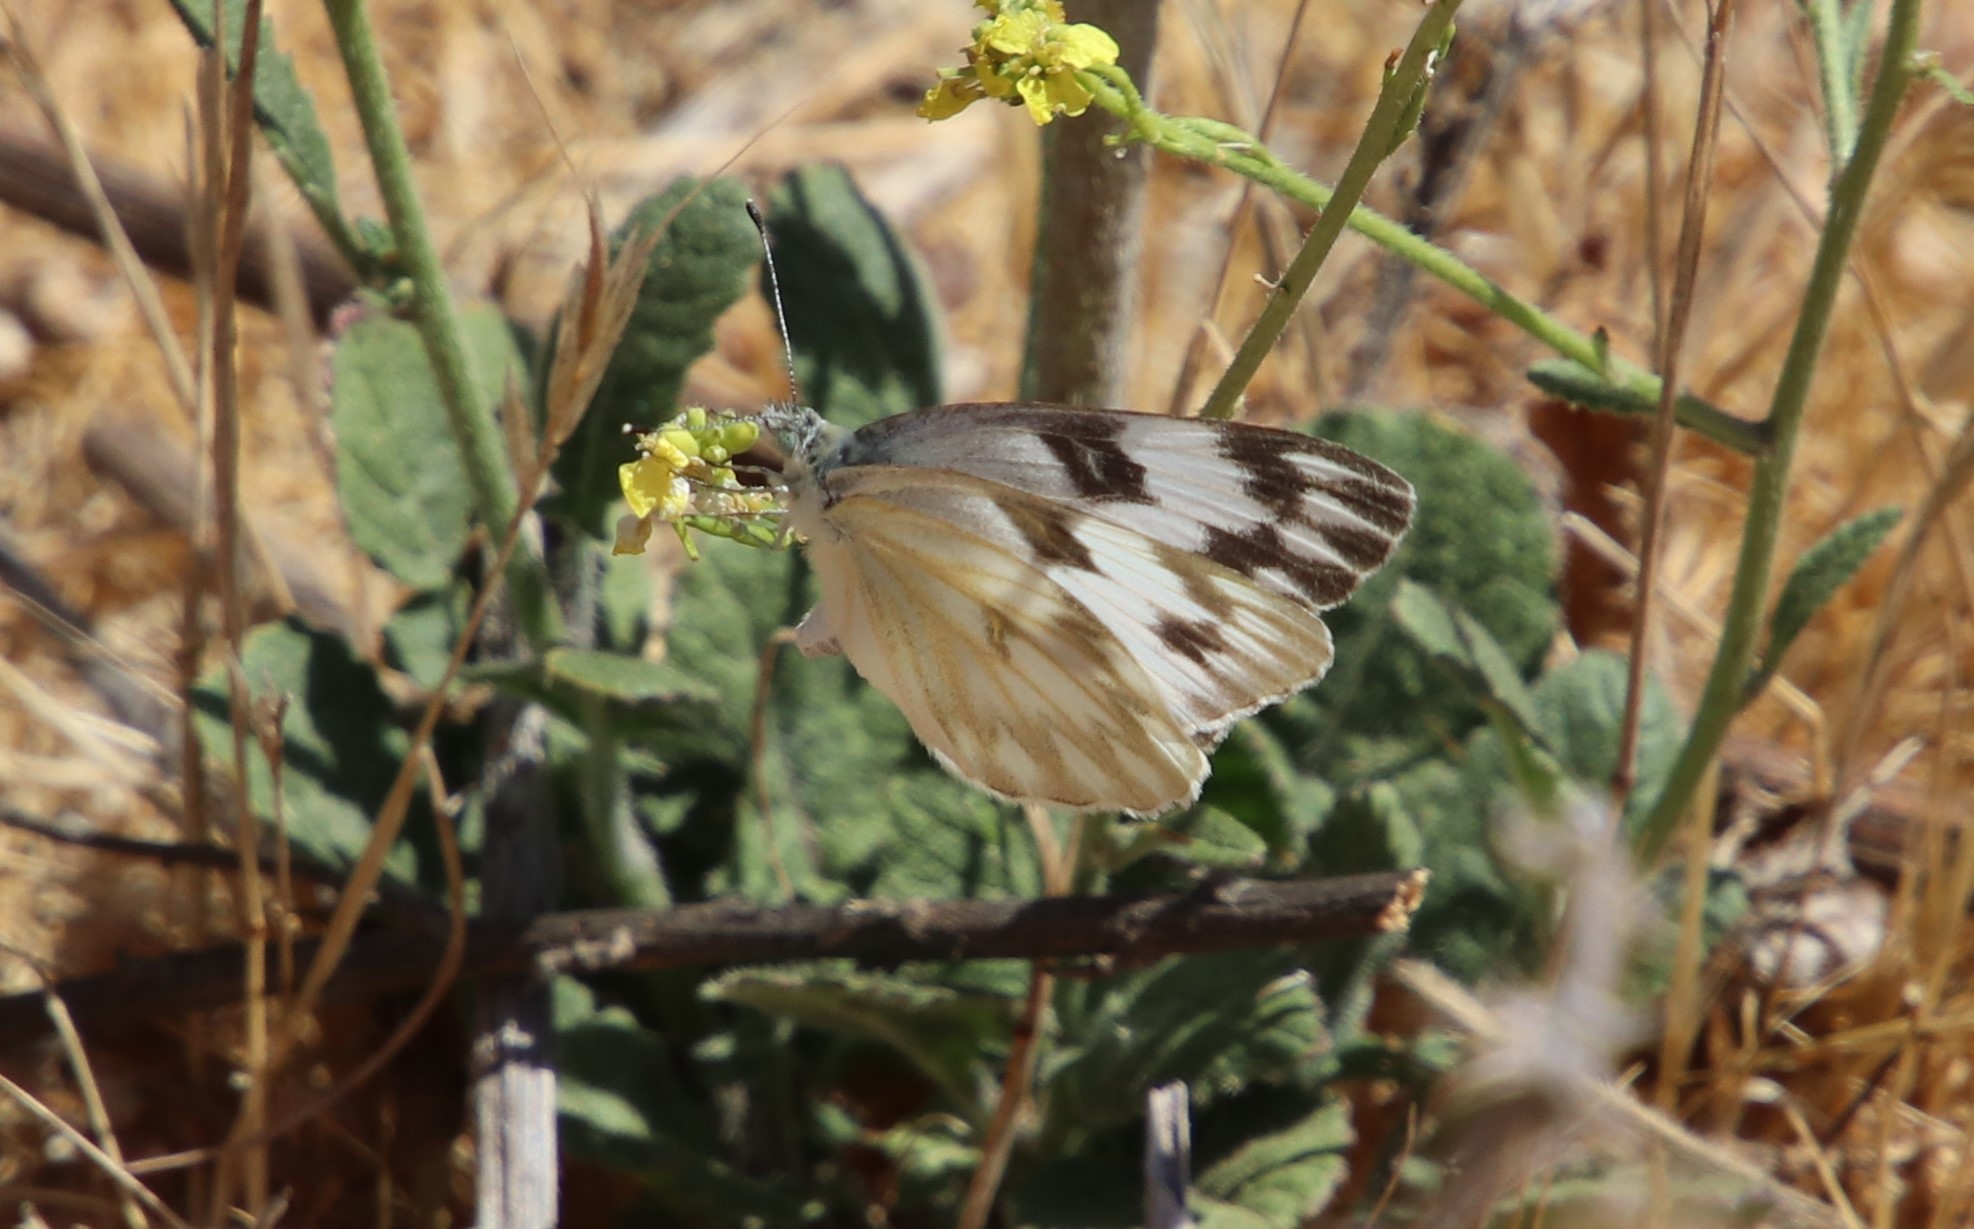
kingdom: Animalia
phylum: Arthropoda
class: Insecta
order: Lepidoptera
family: Pieridae
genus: Pontia
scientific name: Pontia protodice
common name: Checkered white
